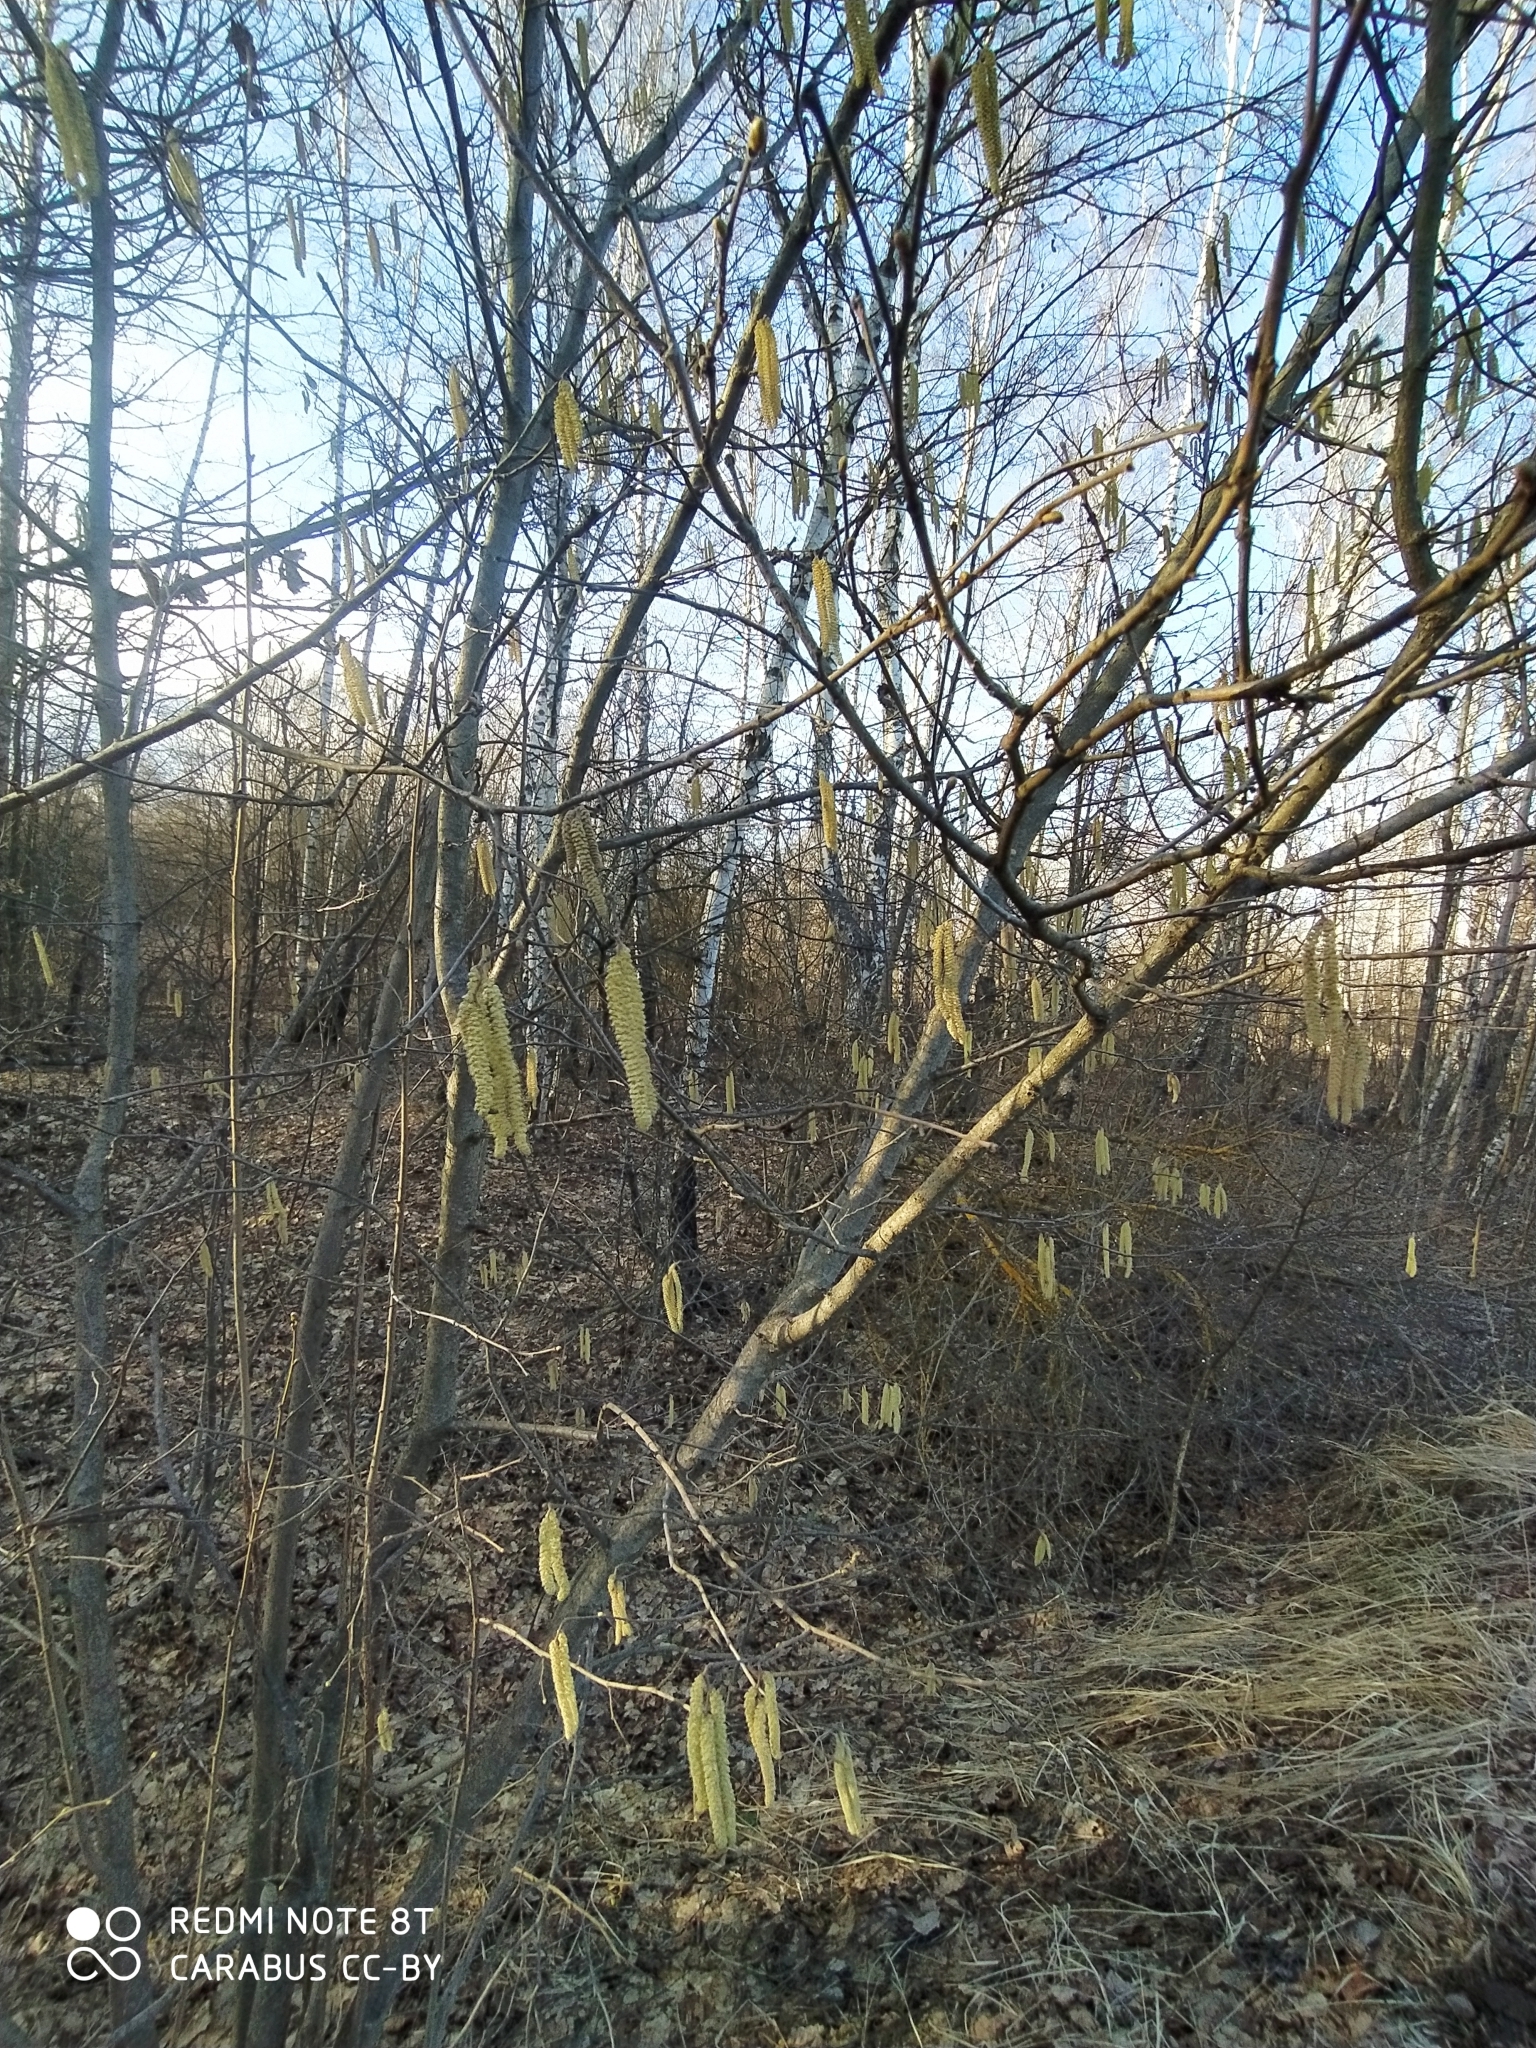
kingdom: Plantae
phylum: Tracheophyta
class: Magnoliopsida
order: Fagales
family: Betulaceae
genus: Corylus
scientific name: Corylus avellana
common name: European hazel
